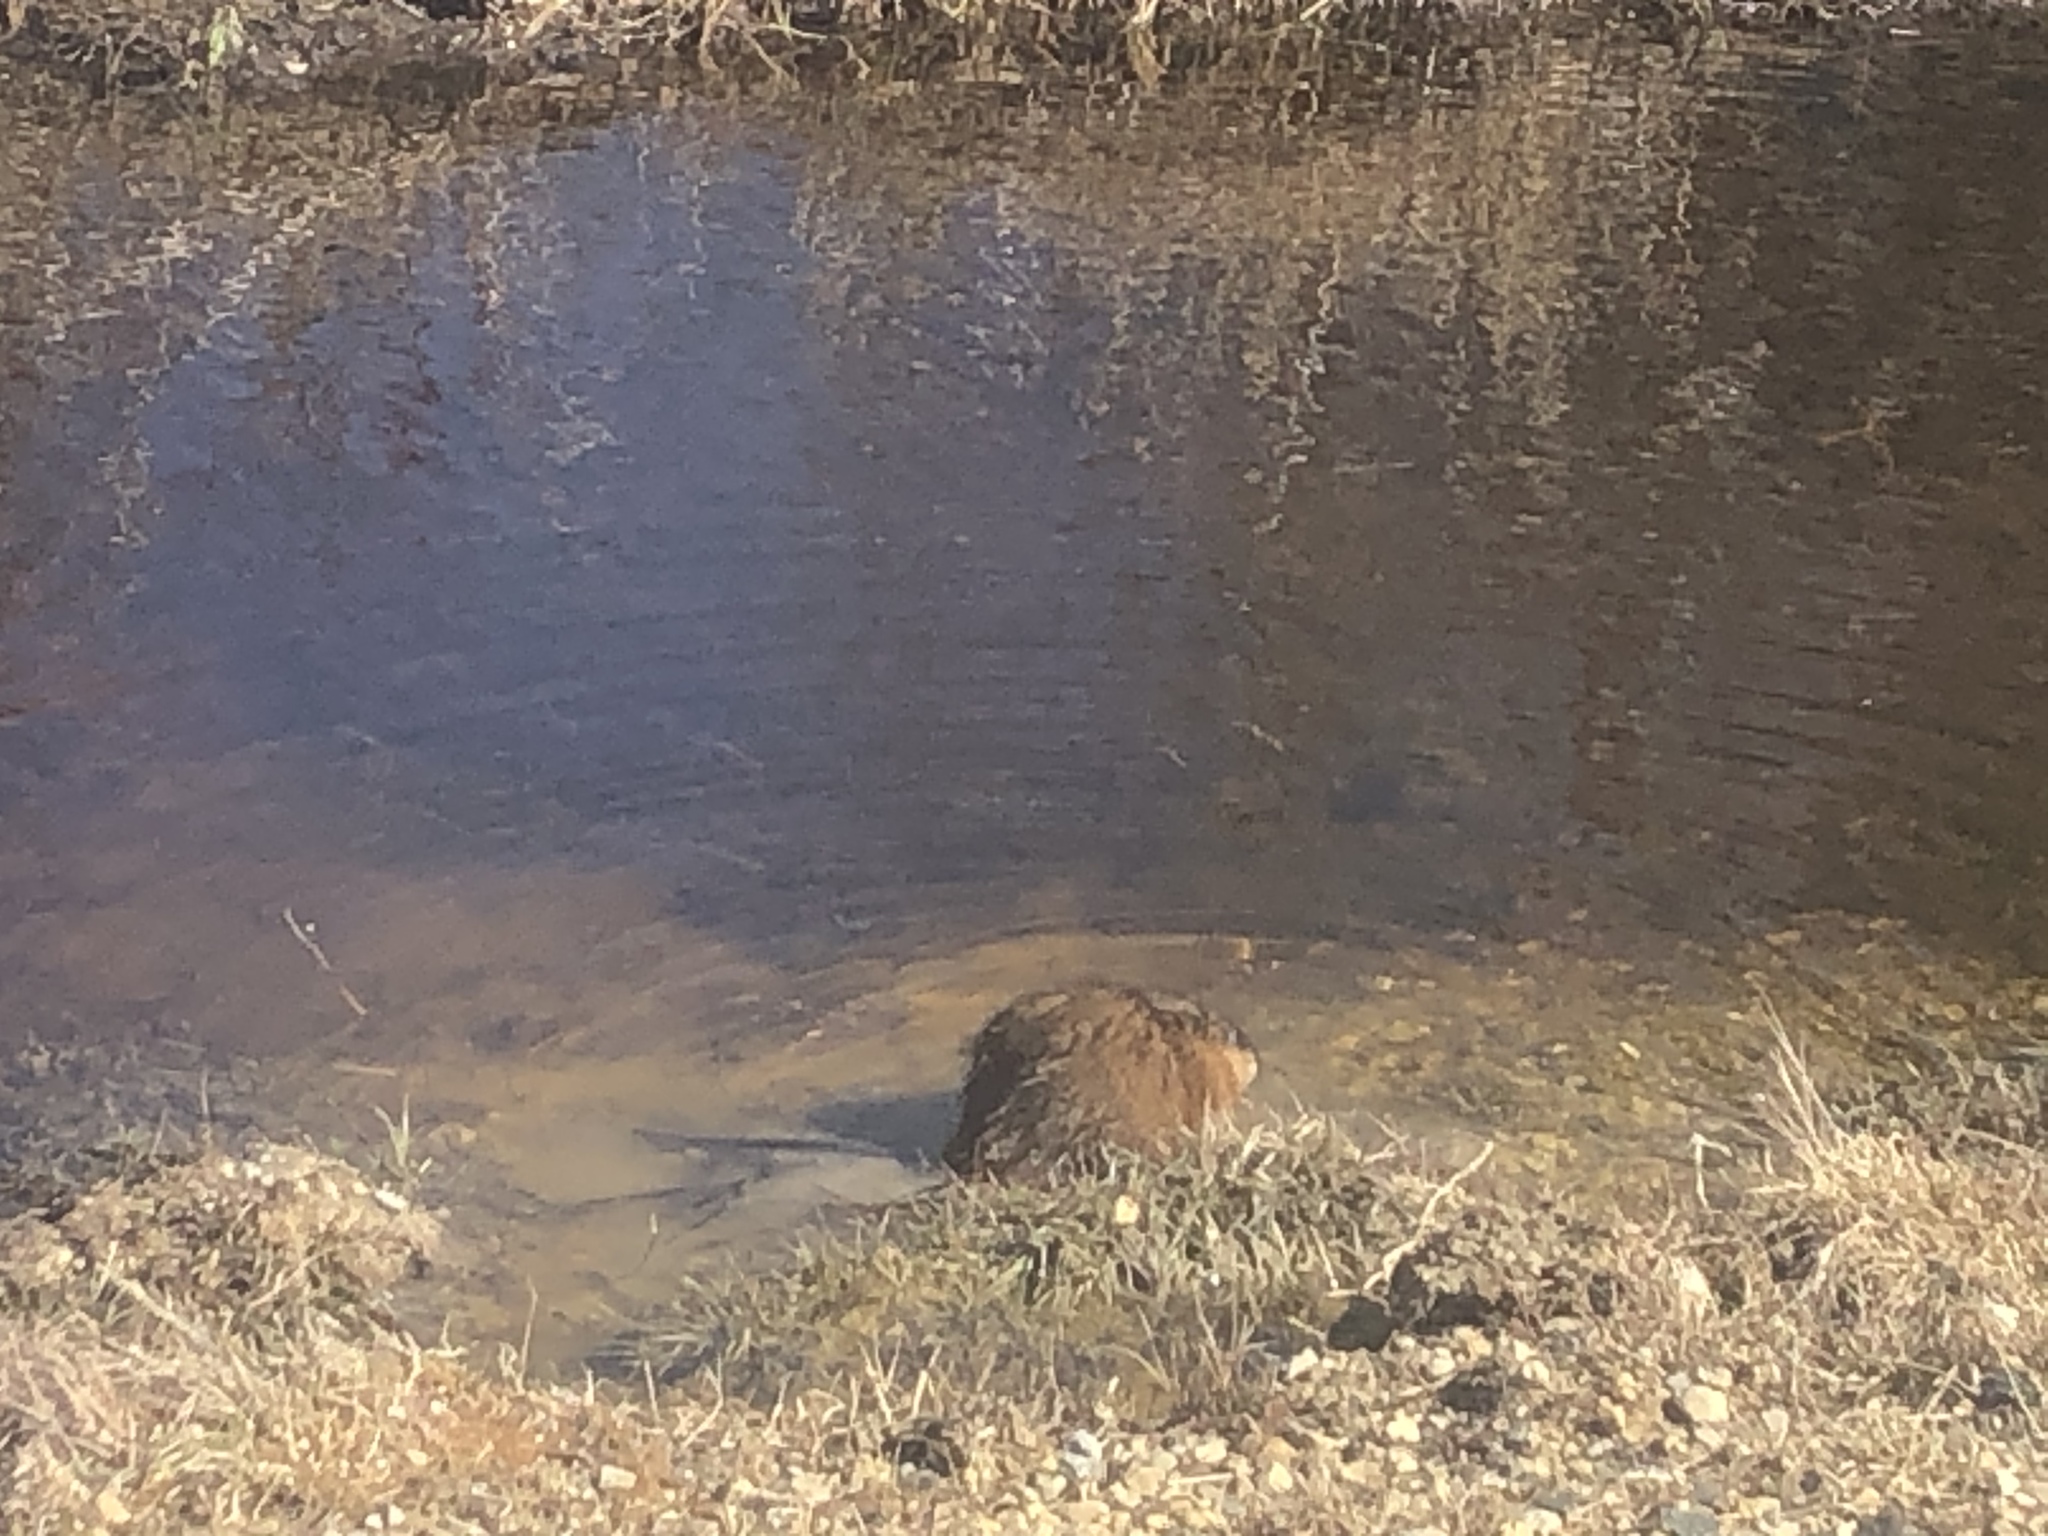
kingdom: Animalia
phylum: Chordata
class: Mammalia
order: Rodentia
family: Cricetidae
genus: Ondatra
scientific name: Ondatra zibethicus
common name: Muskrat
